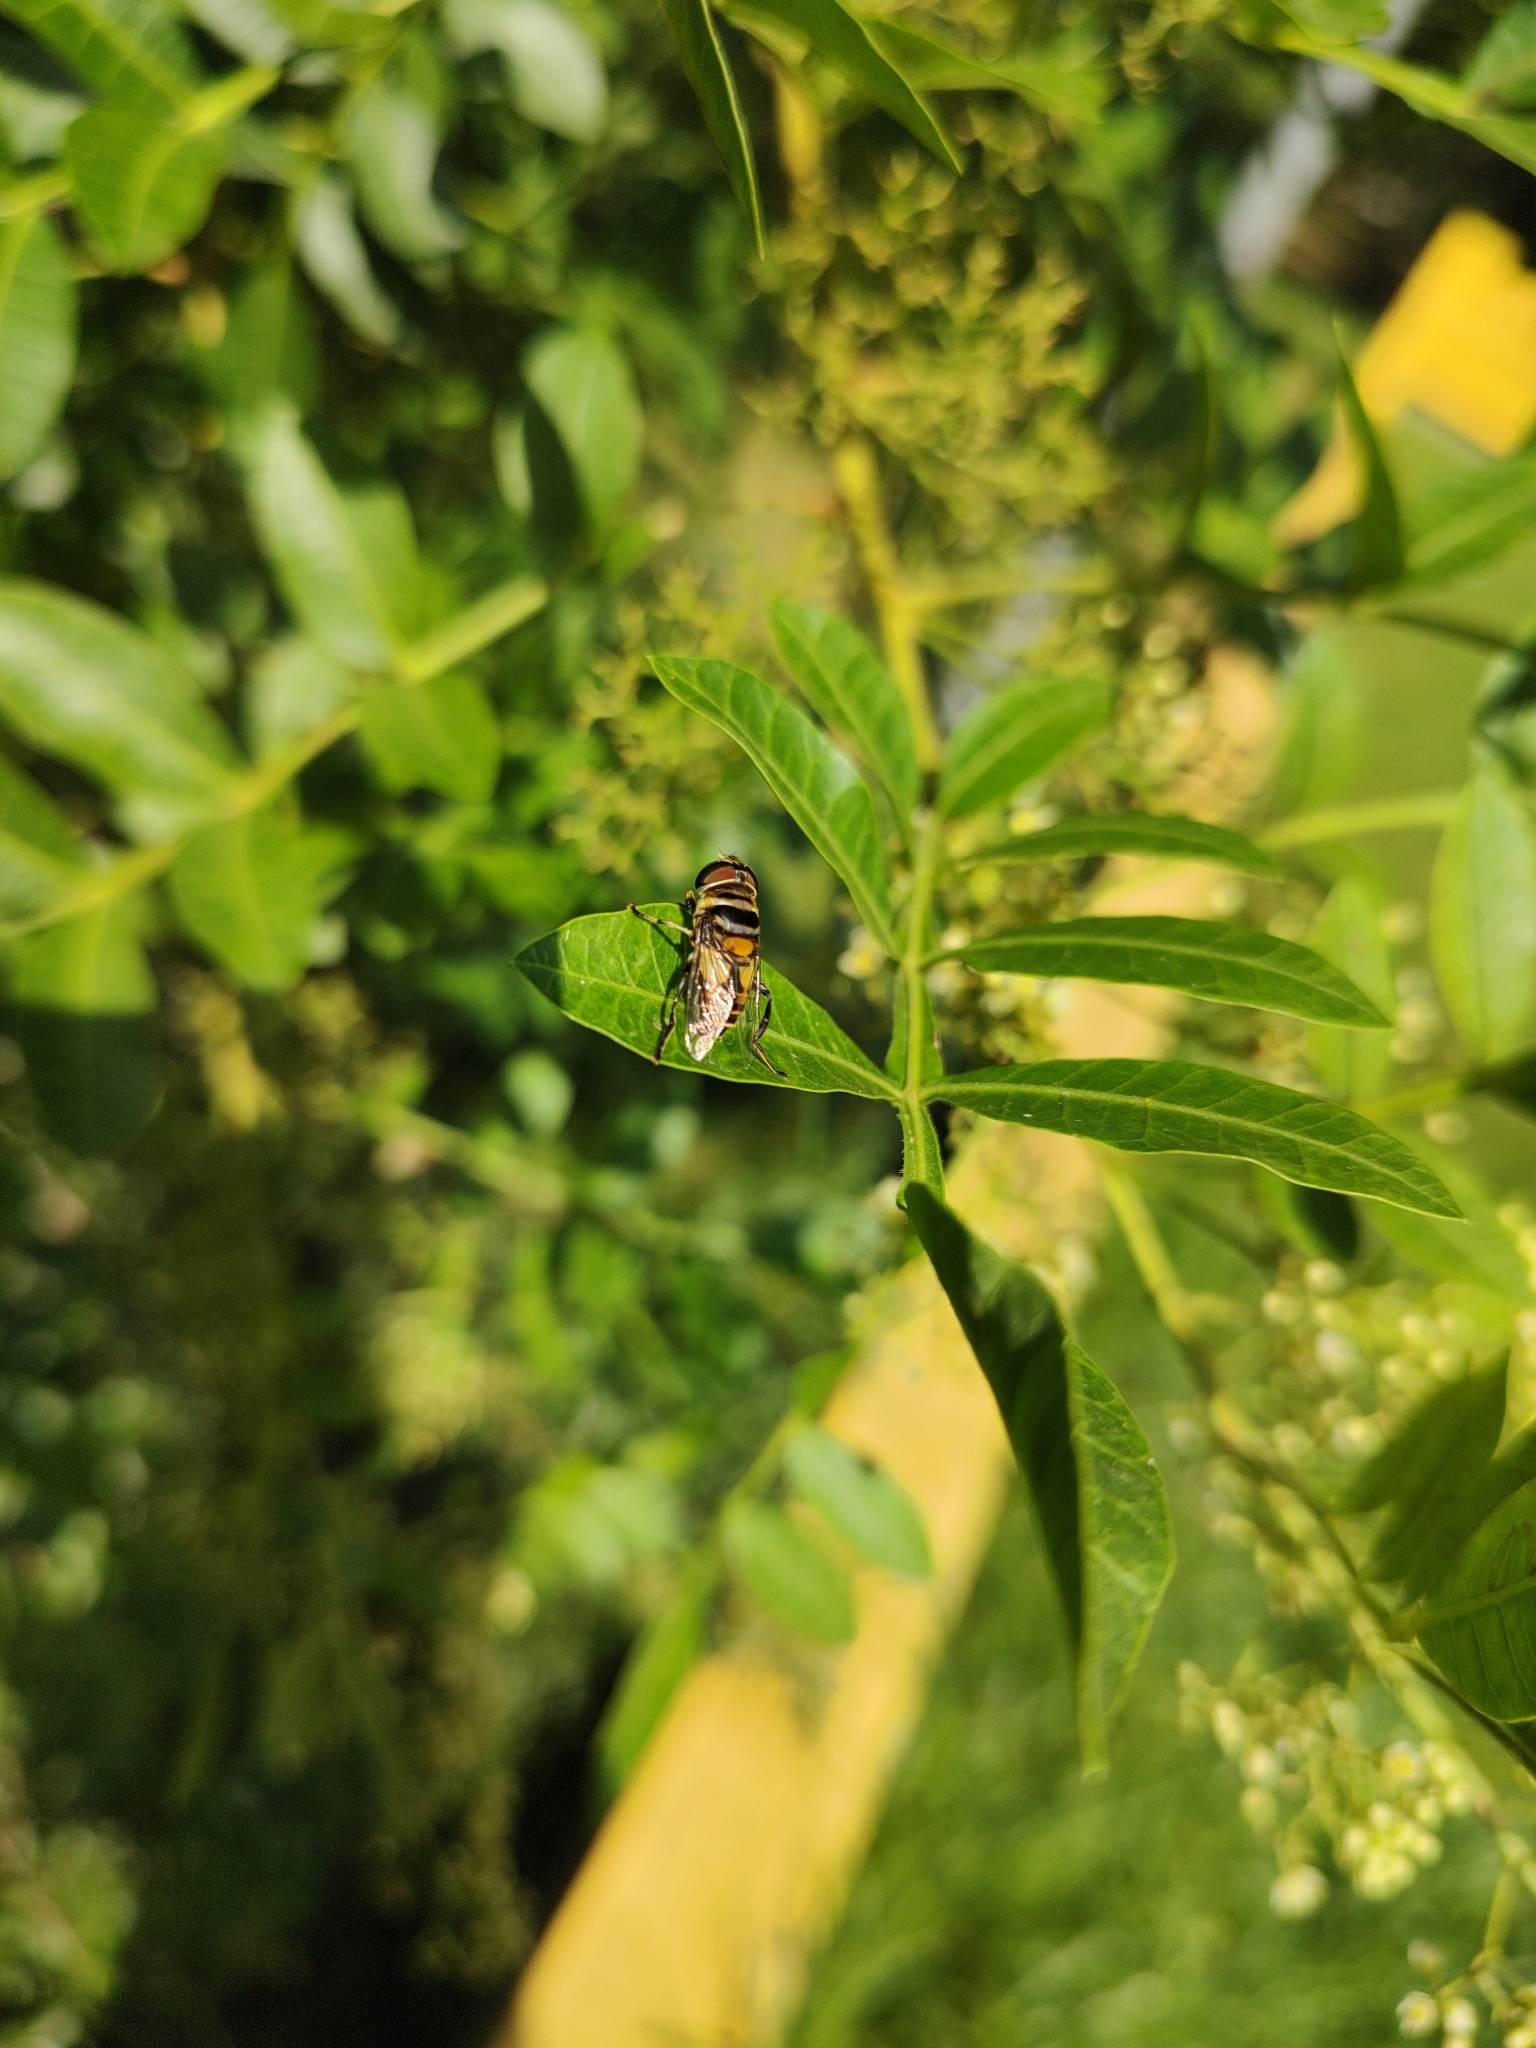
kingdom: Animalia
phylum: Arthropoda
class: Insecta
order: Diptera
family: Syrphidae
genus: Palpada
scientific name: Palpada agrorum
